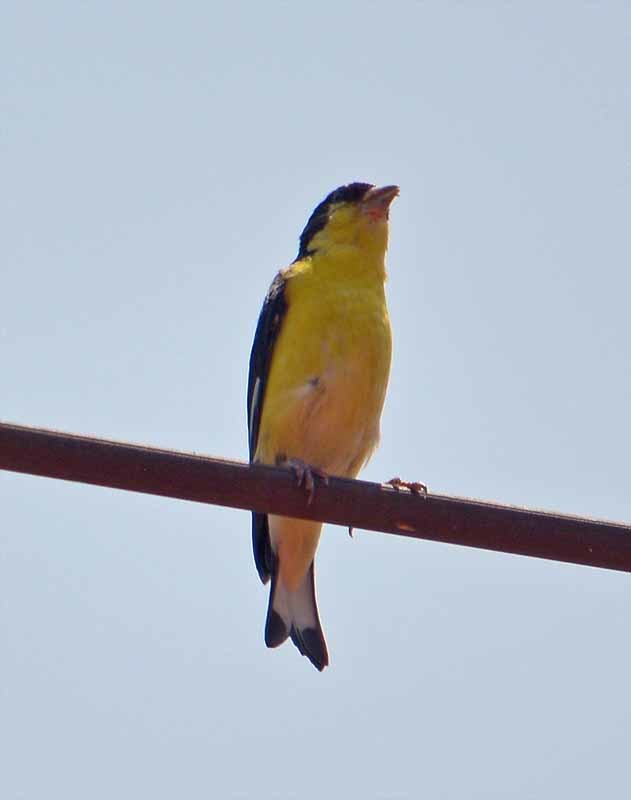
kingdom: Animalia
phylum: Chordata
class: Aves
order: Passeriformes
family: Fringillidae
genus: Spinus
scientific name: Spinus psaltria
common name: Lesser goldfinch
